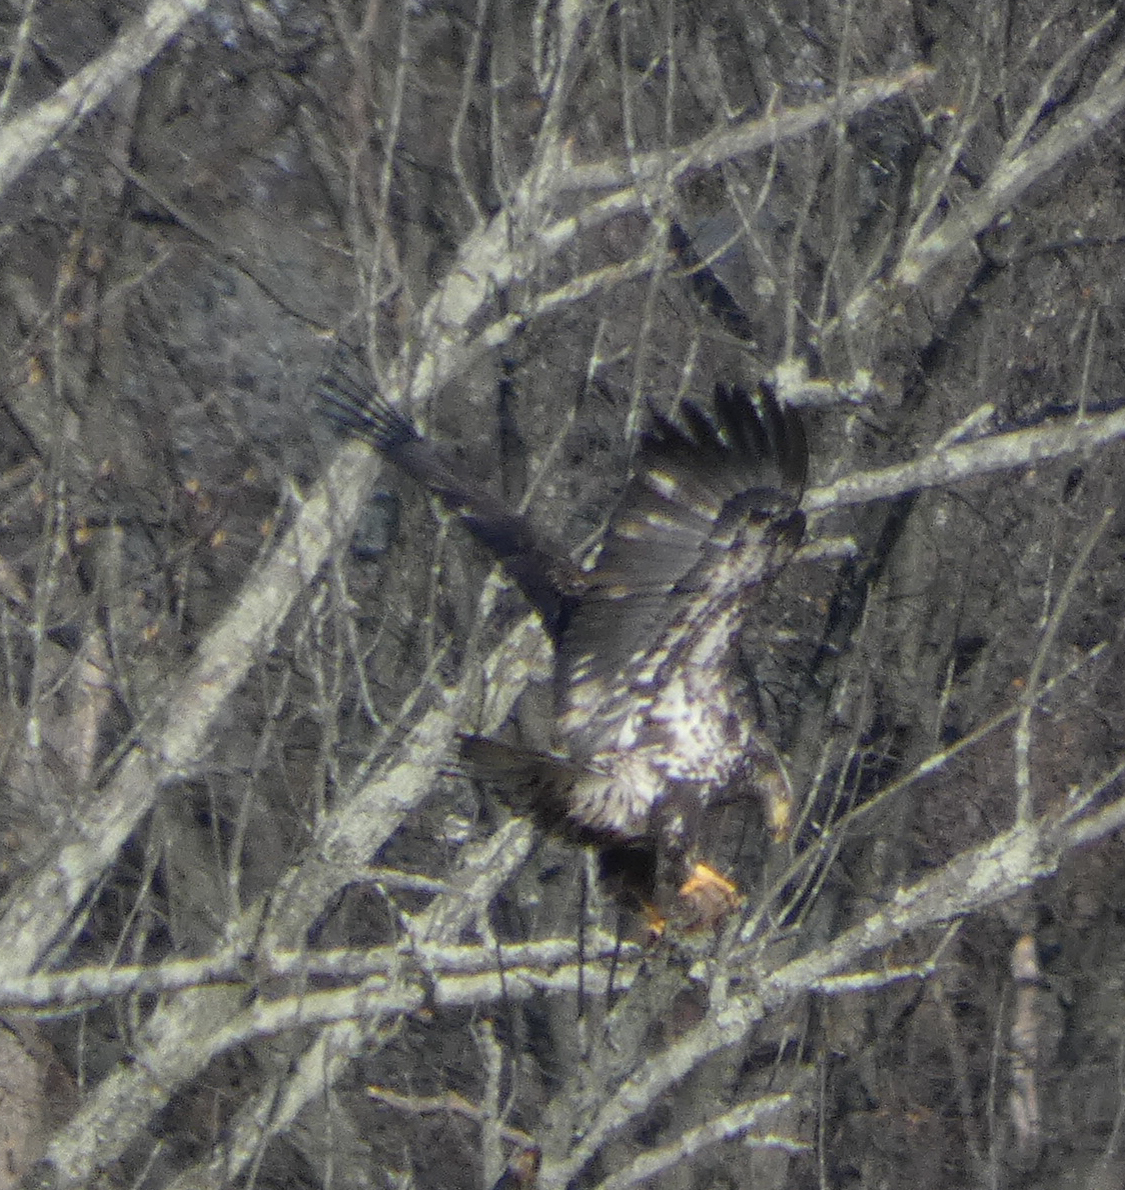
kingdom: Animalia
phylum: Chordata
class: Aves
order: Accipitriformes
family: Accipitridae
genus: Haliaeetus
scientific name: Haliaeetus leucocephalus
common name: Bald eagle
